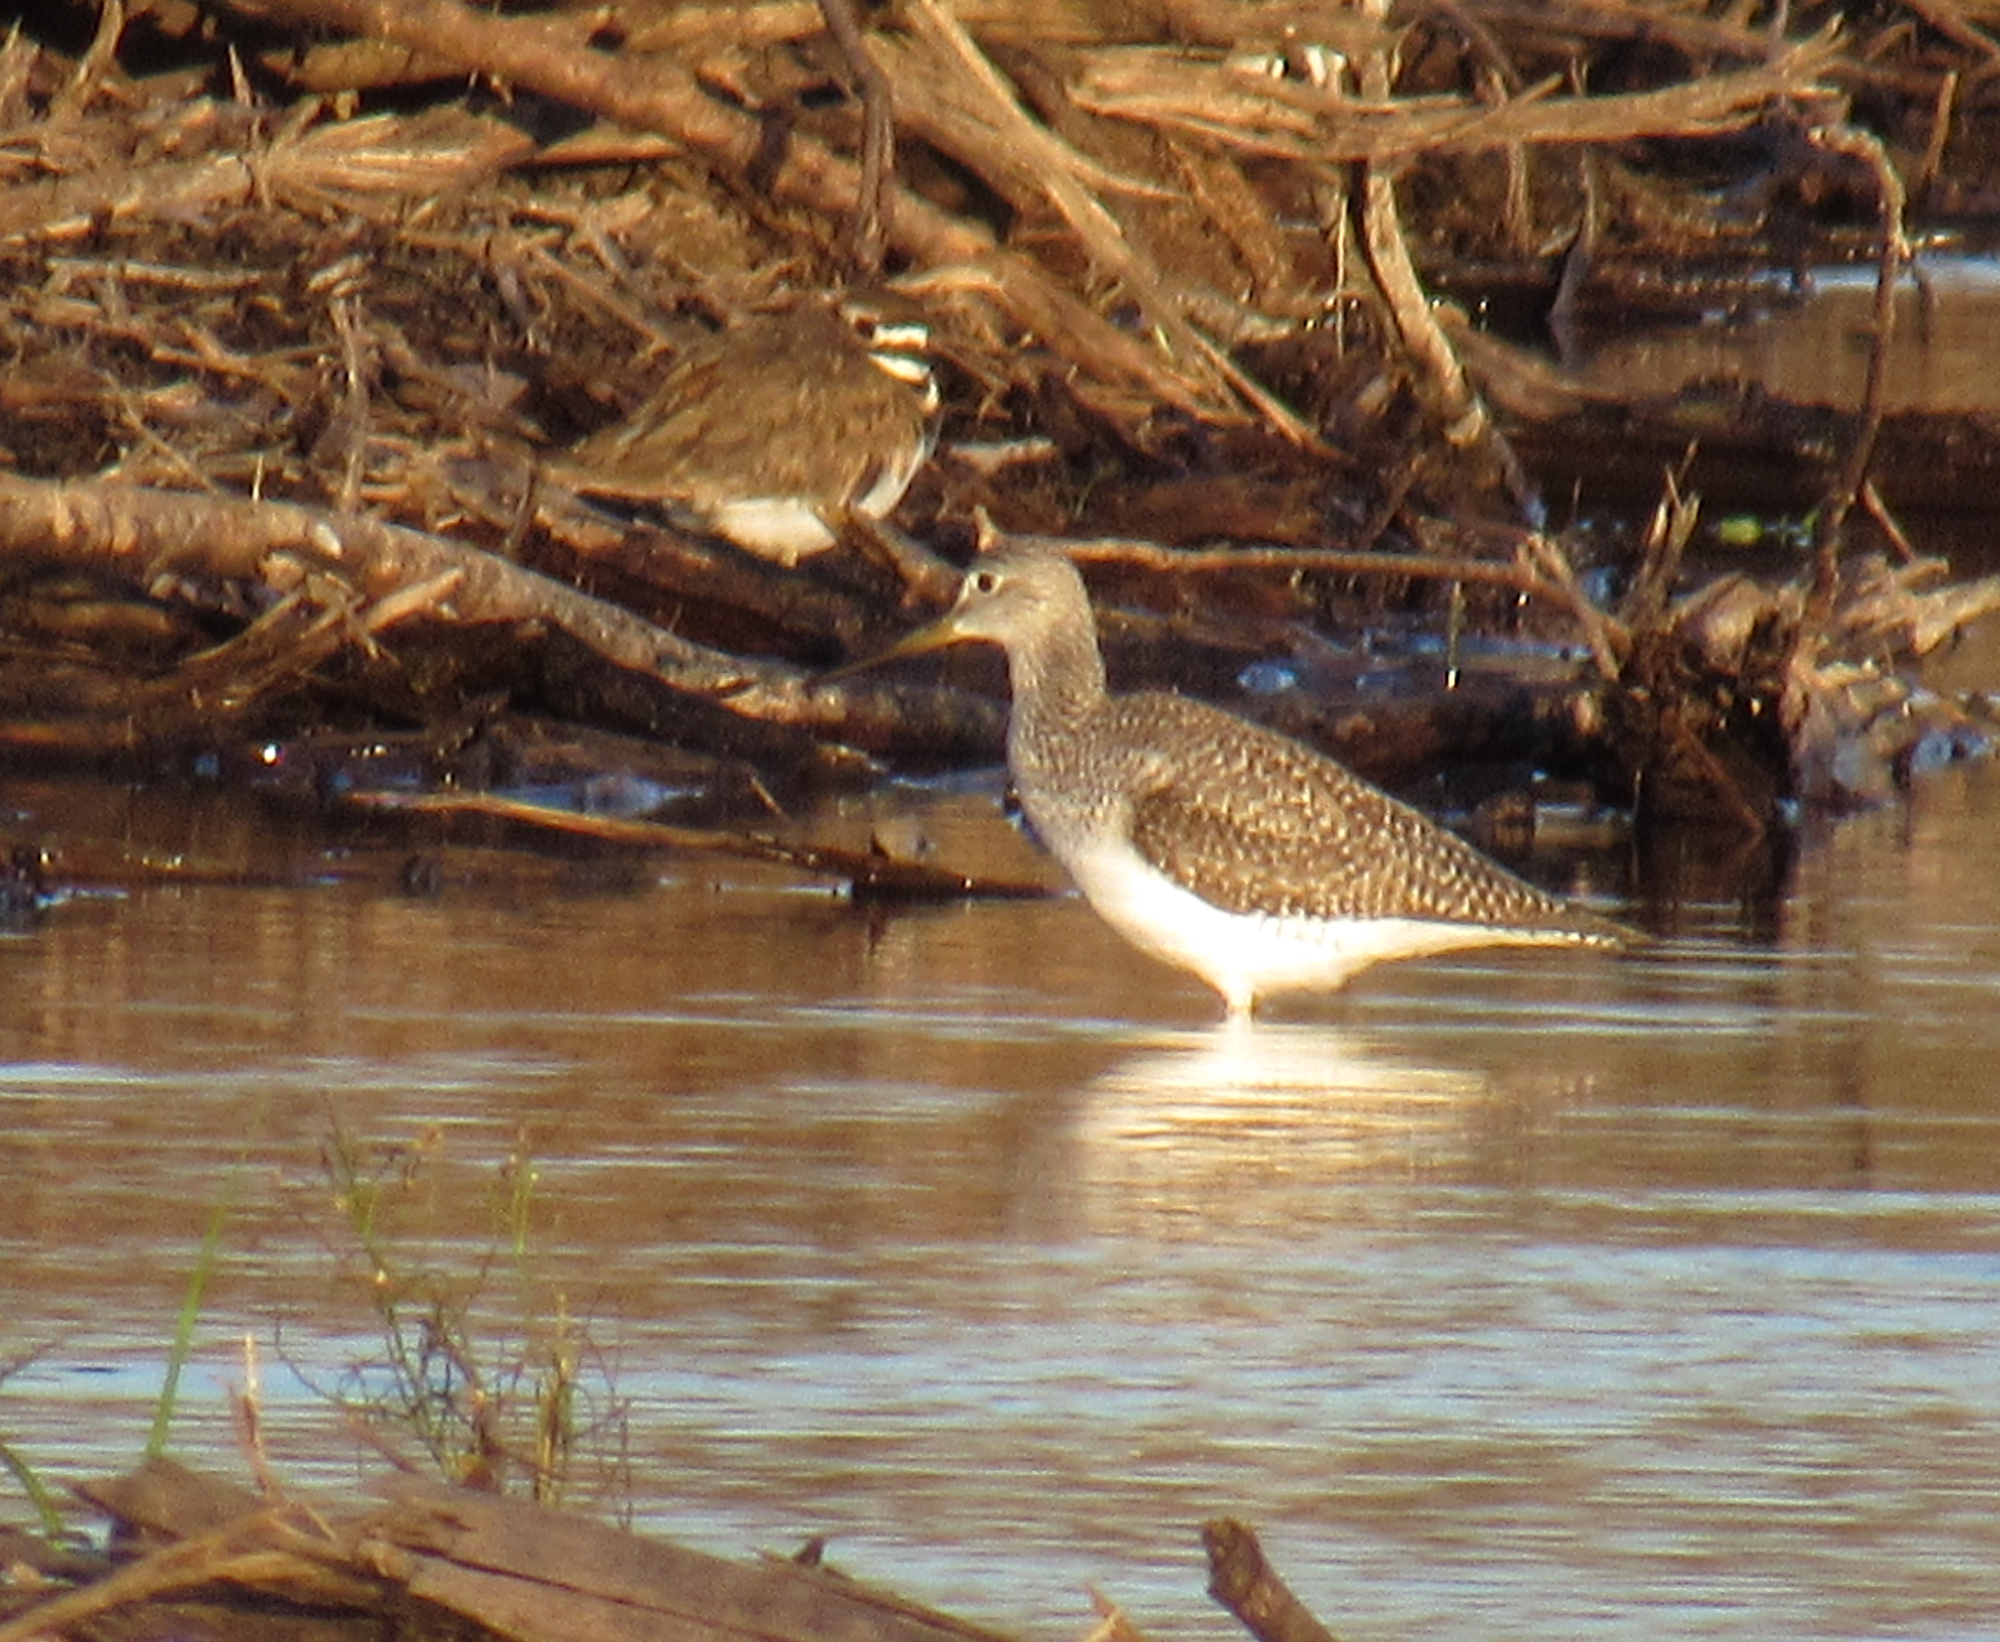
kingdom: Animalia
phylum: Chordata
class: Aves
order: Charadriiformes
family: Charadriidae
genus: Charadrius
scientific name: Charadrius vociferus
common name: Killdeer
